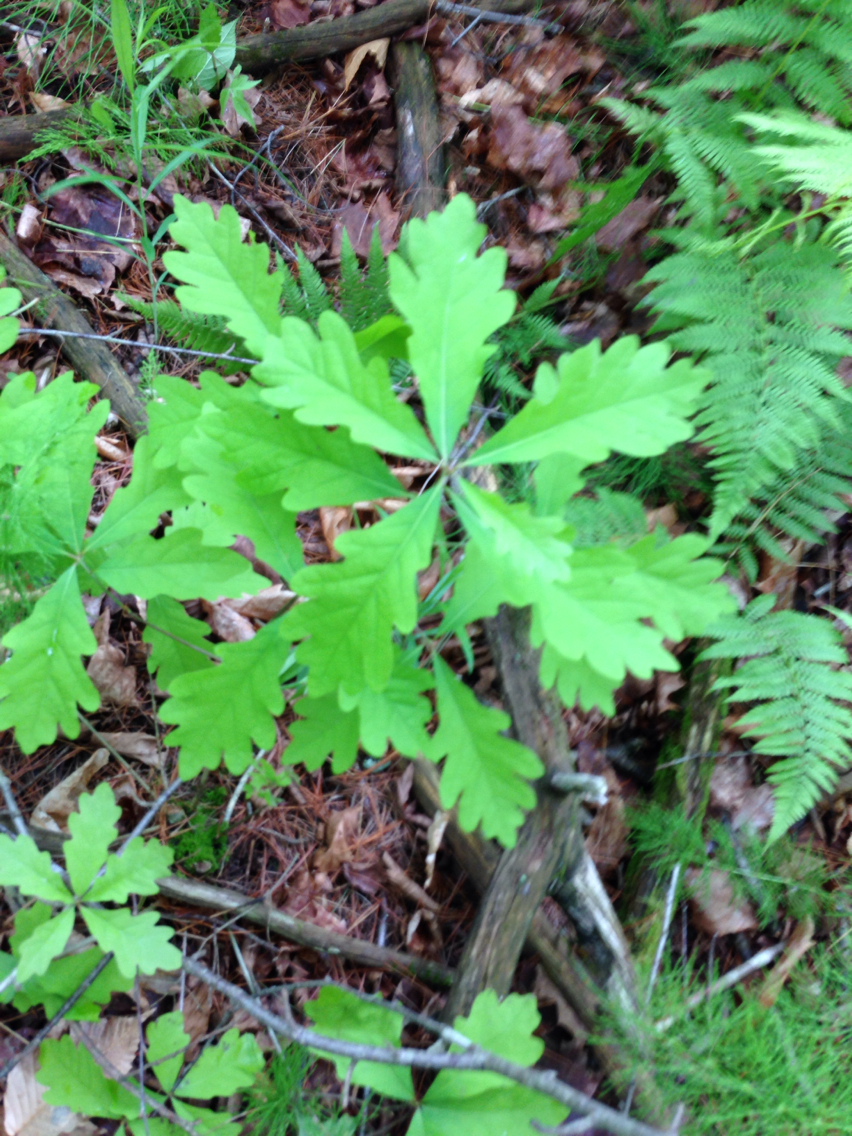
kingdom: Plantae
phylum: Tracheophyta
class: Magnoliopsida
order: Fagales
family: Fagaceae
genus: Quercus
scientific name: Quercus alba
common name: White oak
